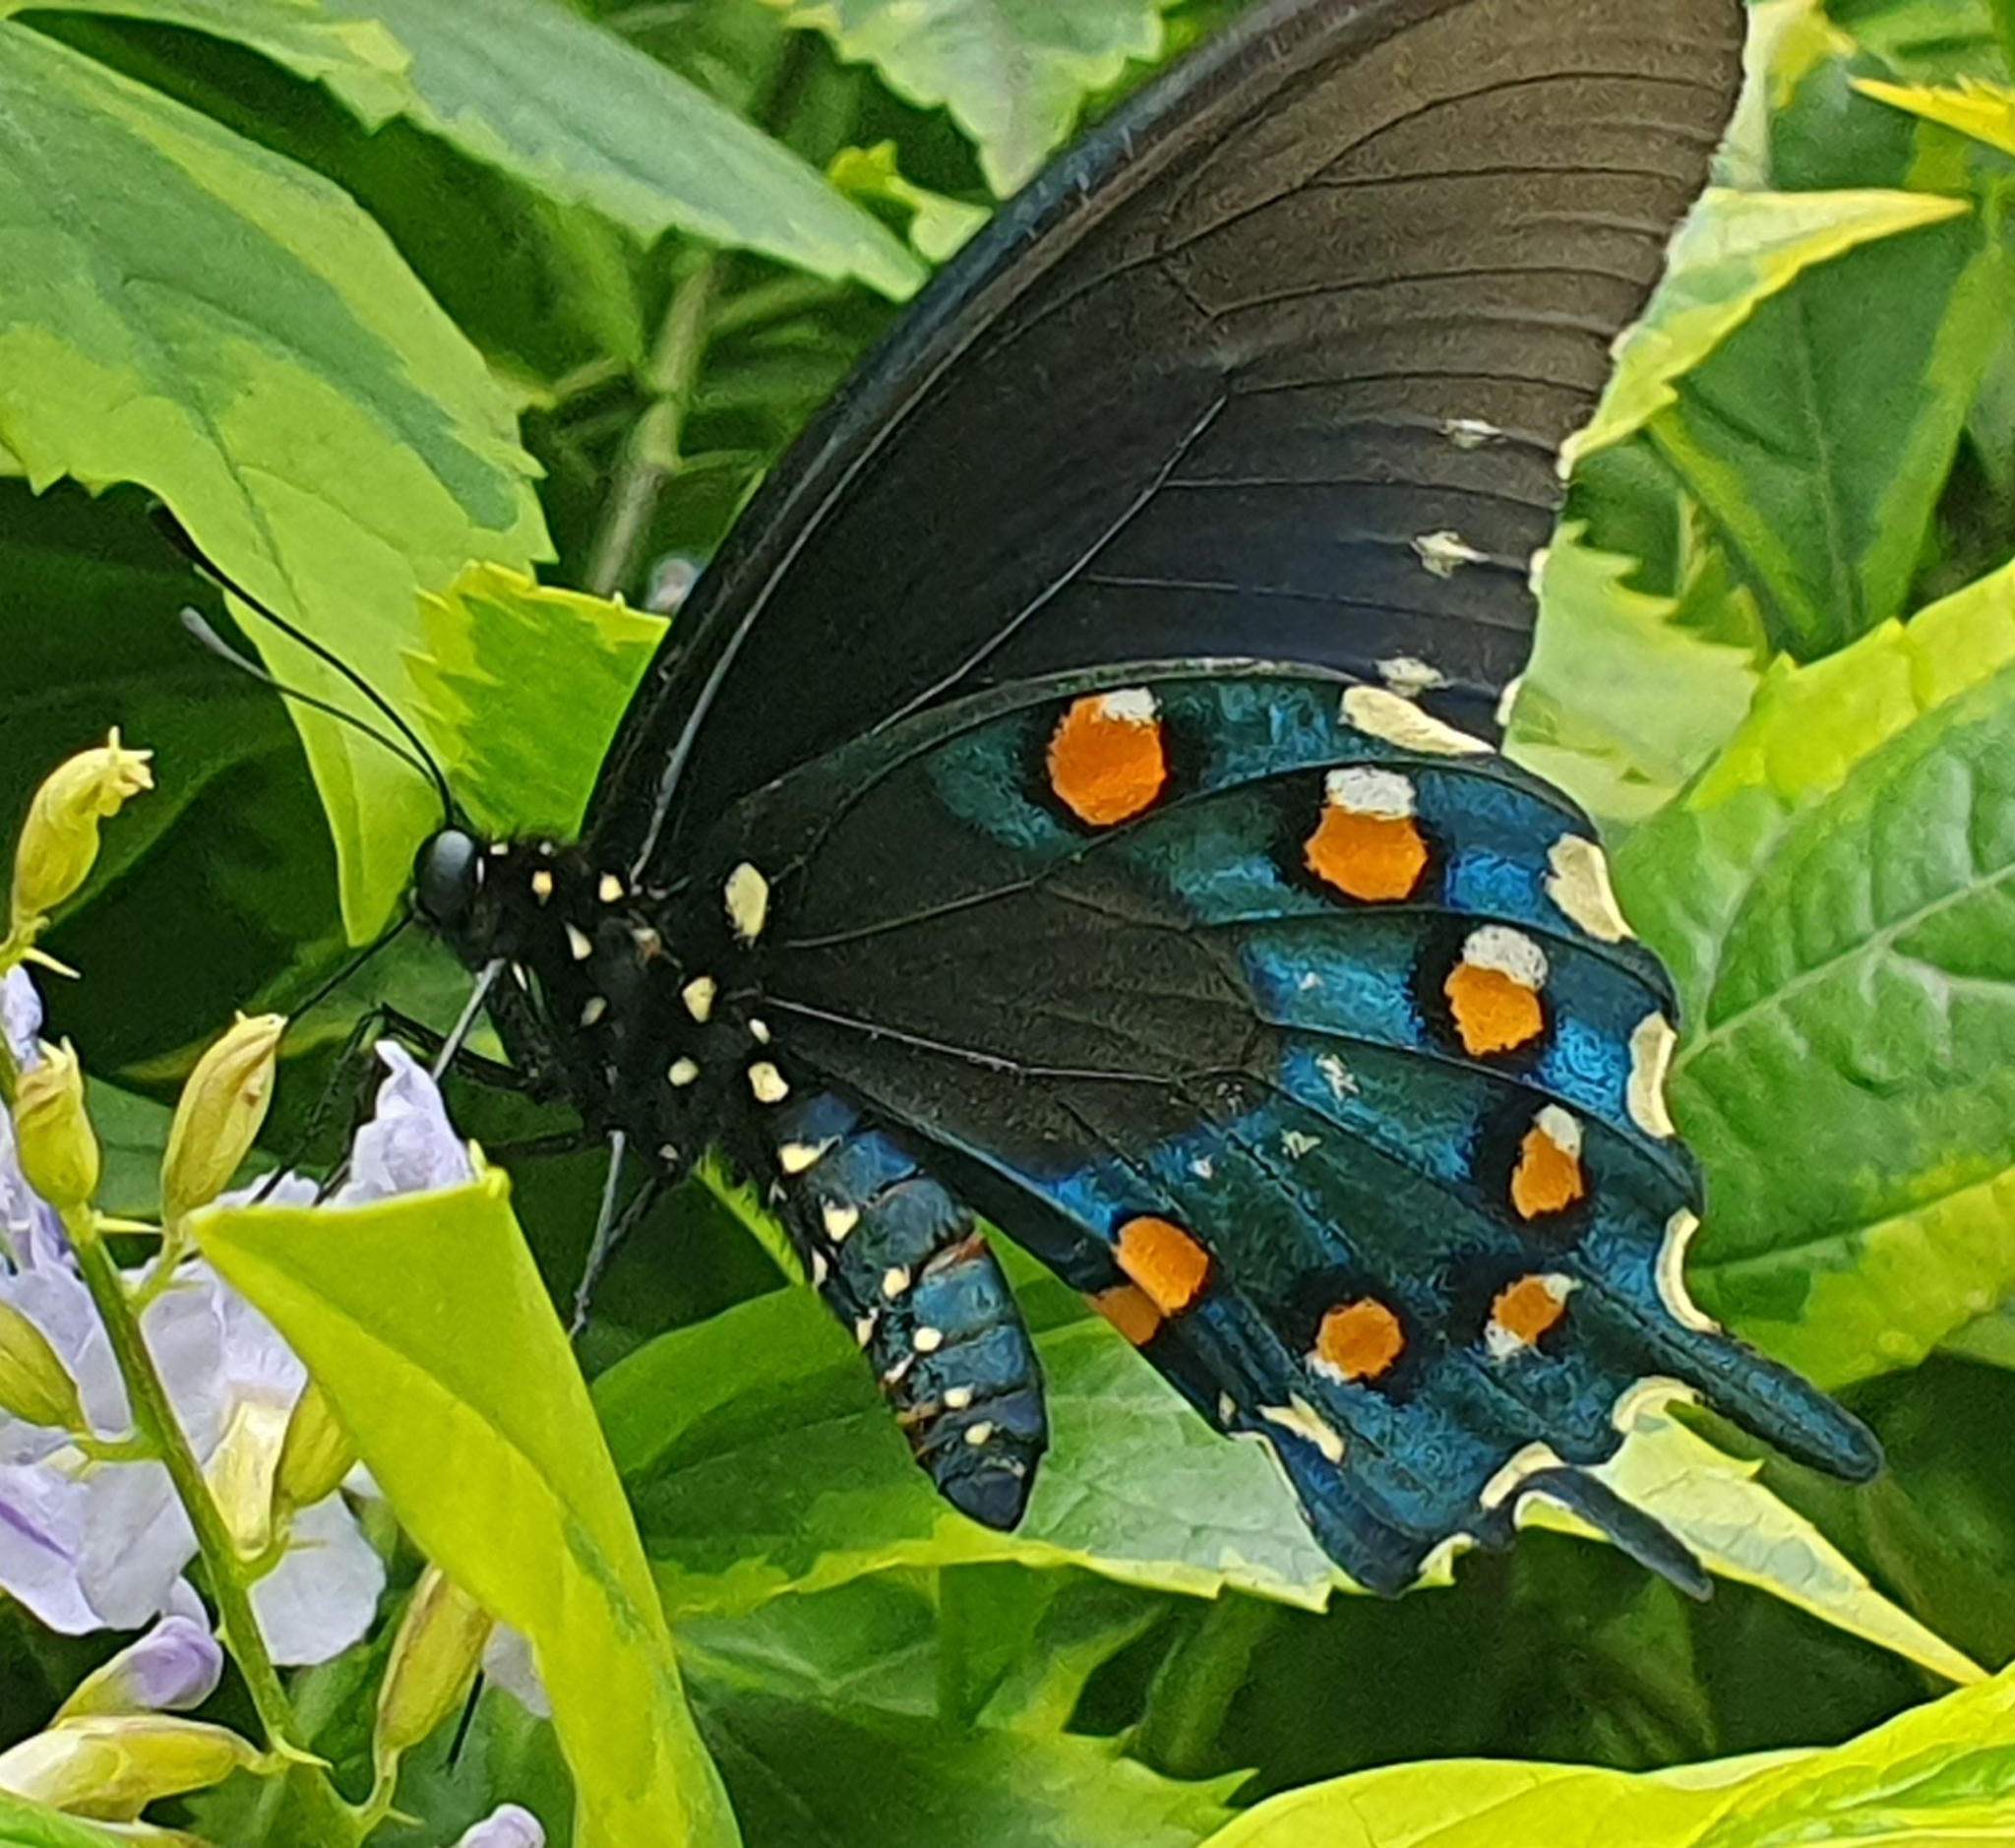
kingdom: Animalia
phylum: Arthropoda
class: Insecta
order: Lepidoptera
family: Papilionidae
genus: Battus
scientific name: Battus philenor
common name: Pipevine swallowtail
